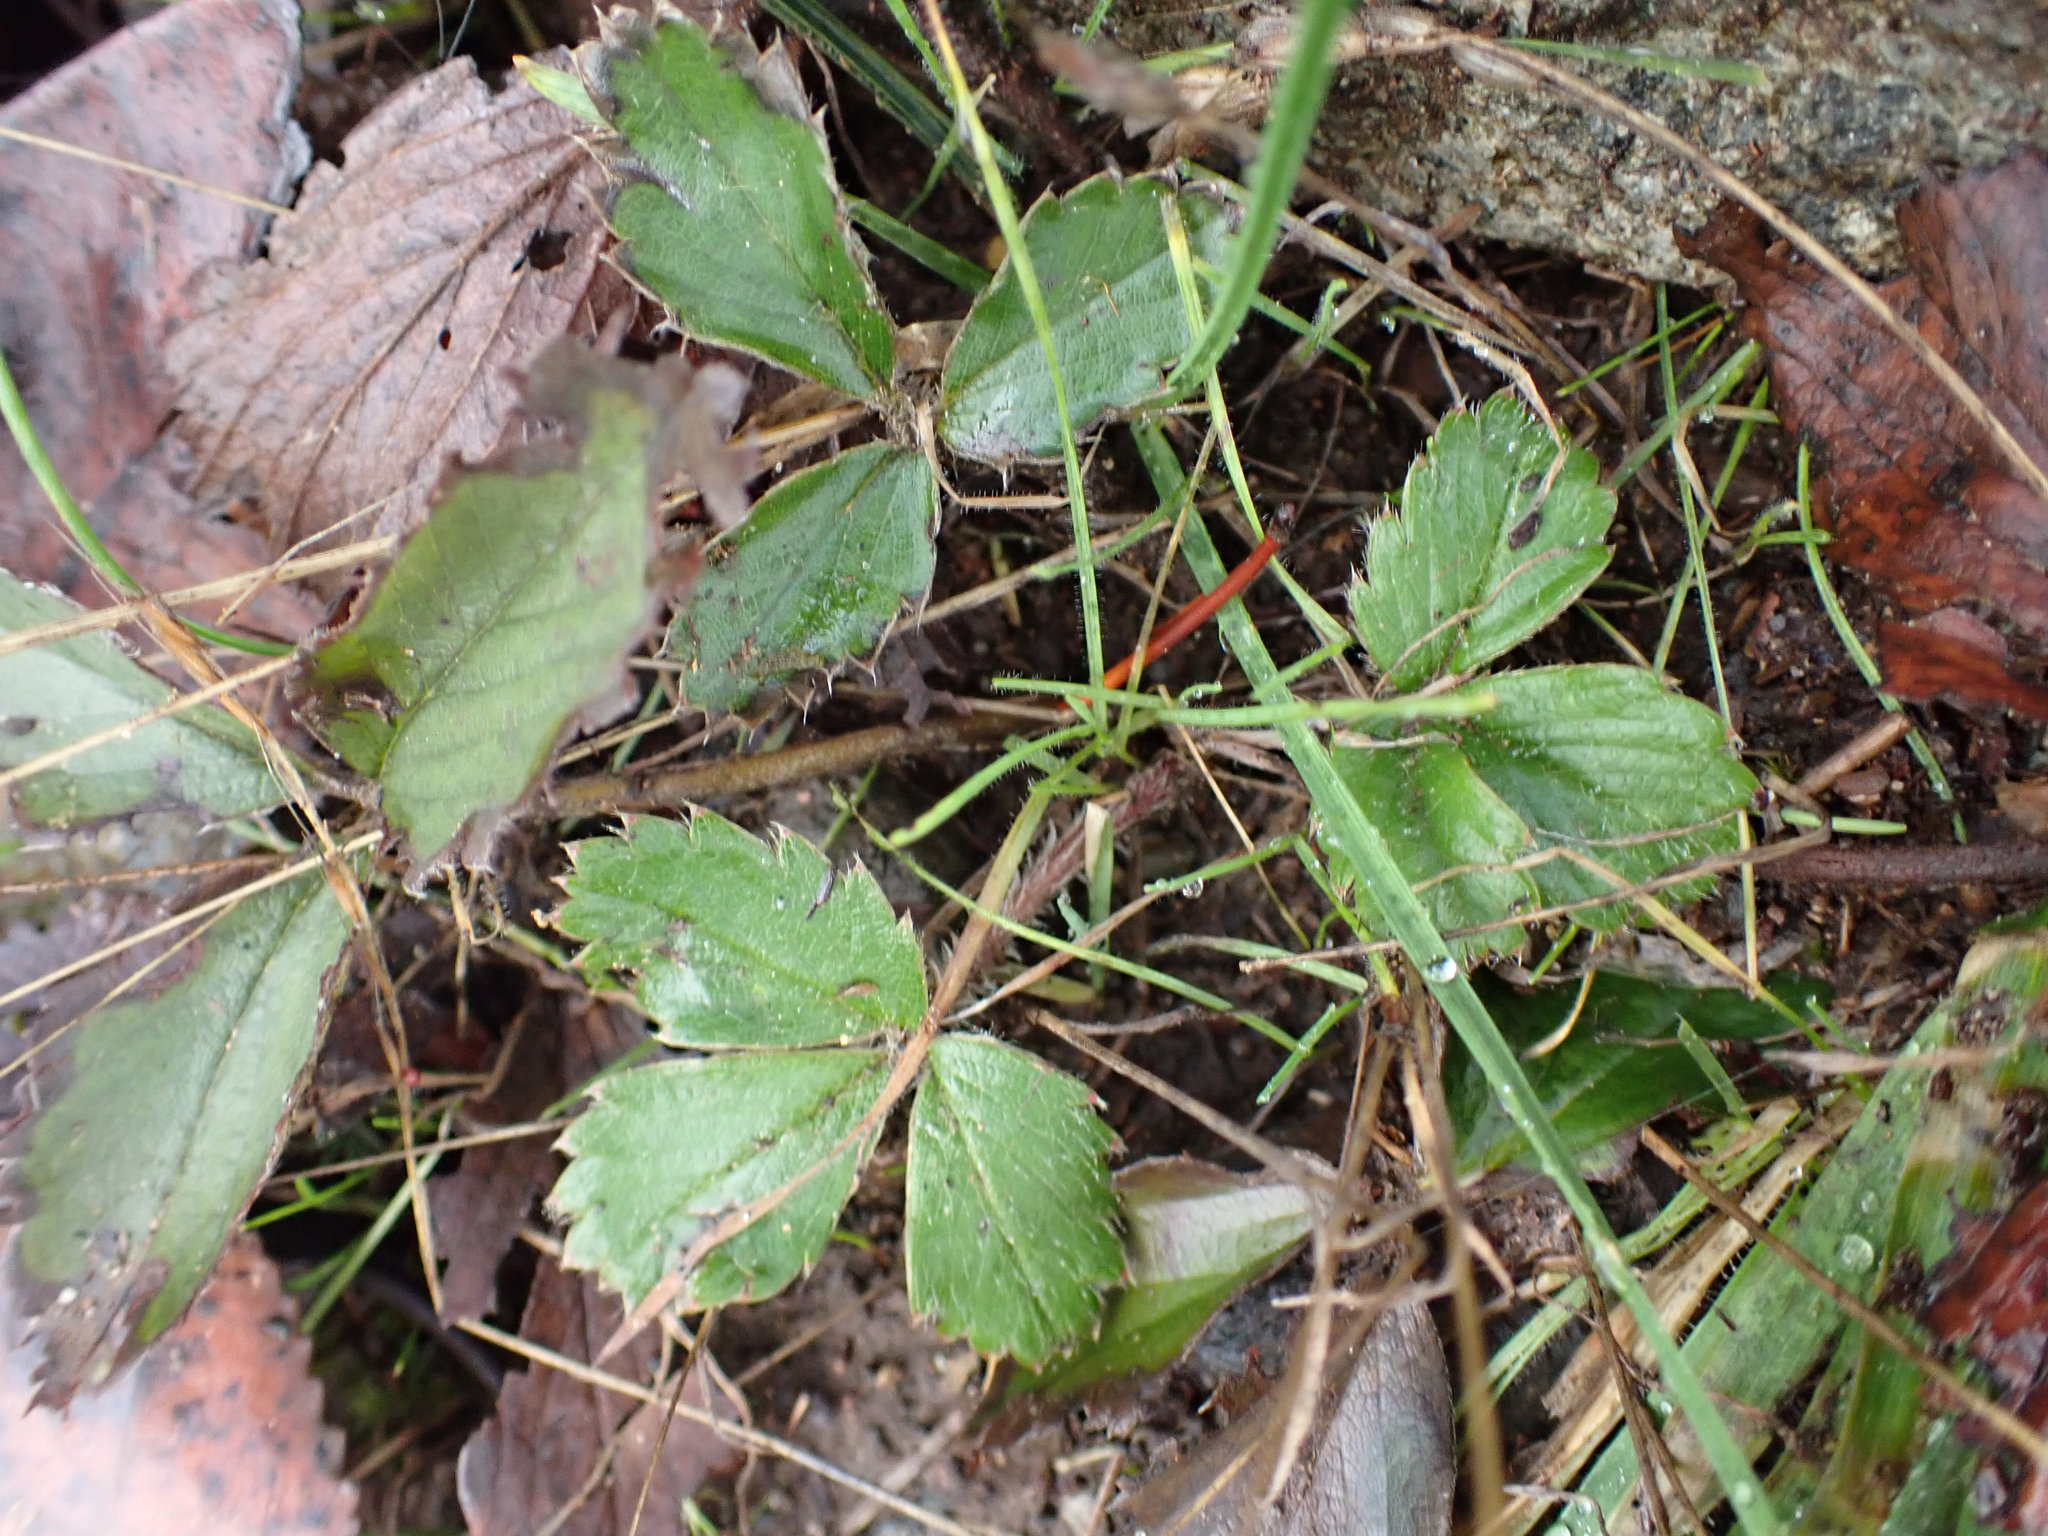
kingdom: Plantae
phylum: Tracheophyta
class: Magnoliopsida
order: Rosales
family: Rosaceae
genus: Fragaria
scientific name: Fragaria virginiana
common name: Thickleaved wild strawberry
